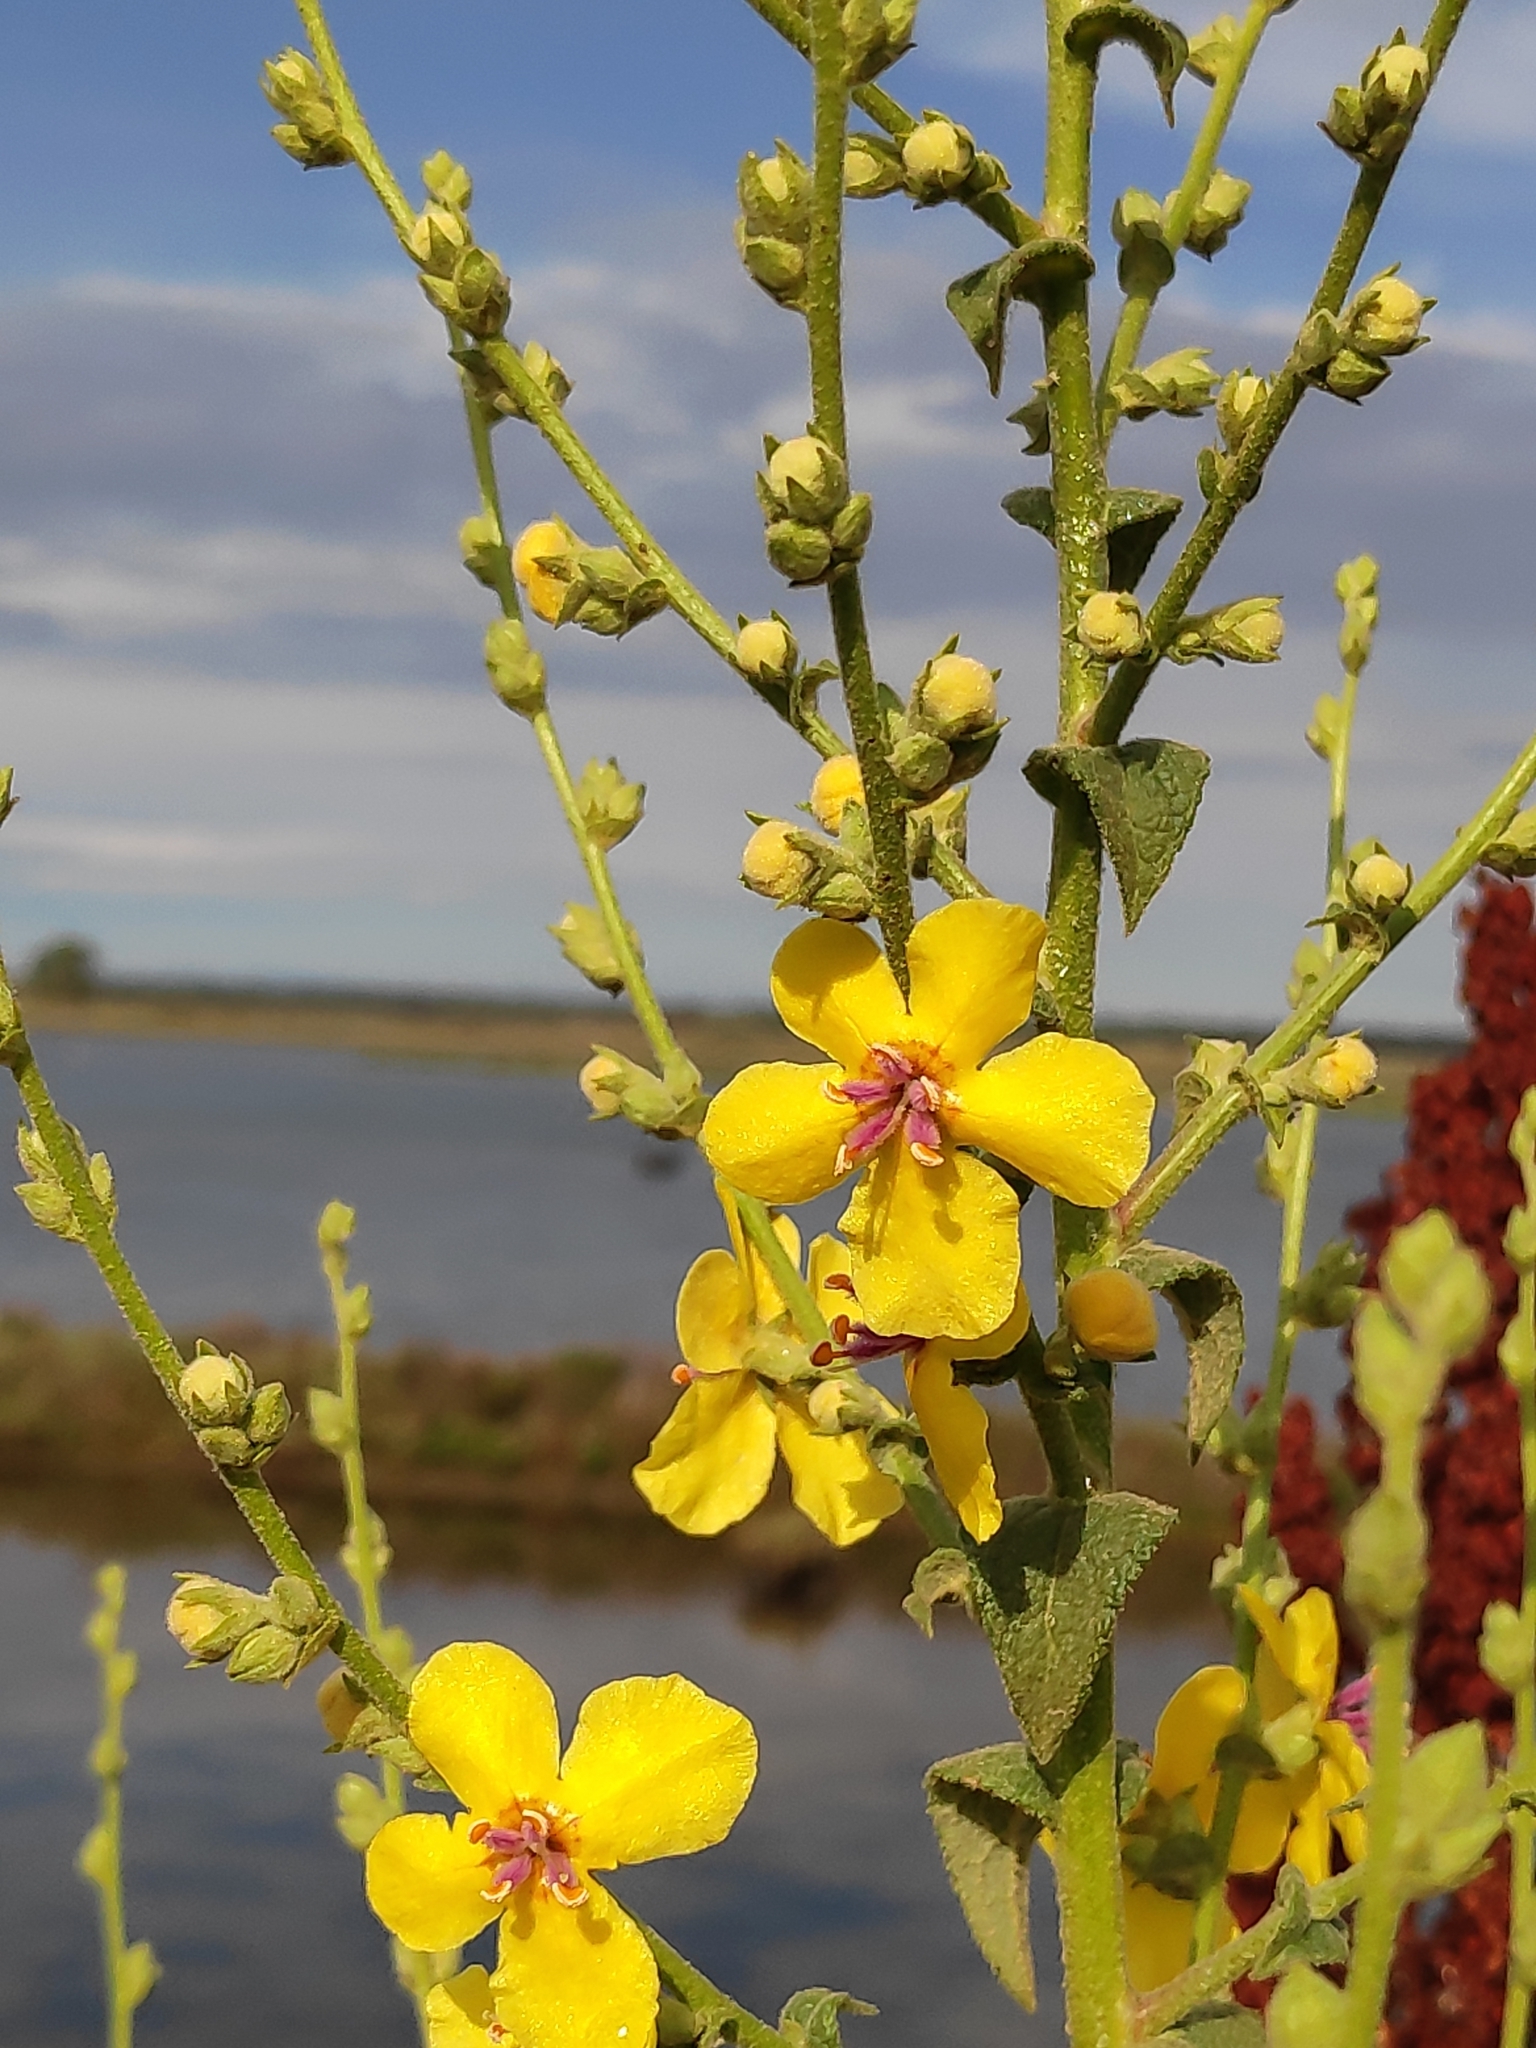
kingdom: Plantae
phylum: Tracheophyta
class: Magnoliopsida
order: Lamiales
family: Scrophulariaceae
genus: Verbascum
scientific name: Verbascum sinuatum
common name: Wavyleaf mullein
